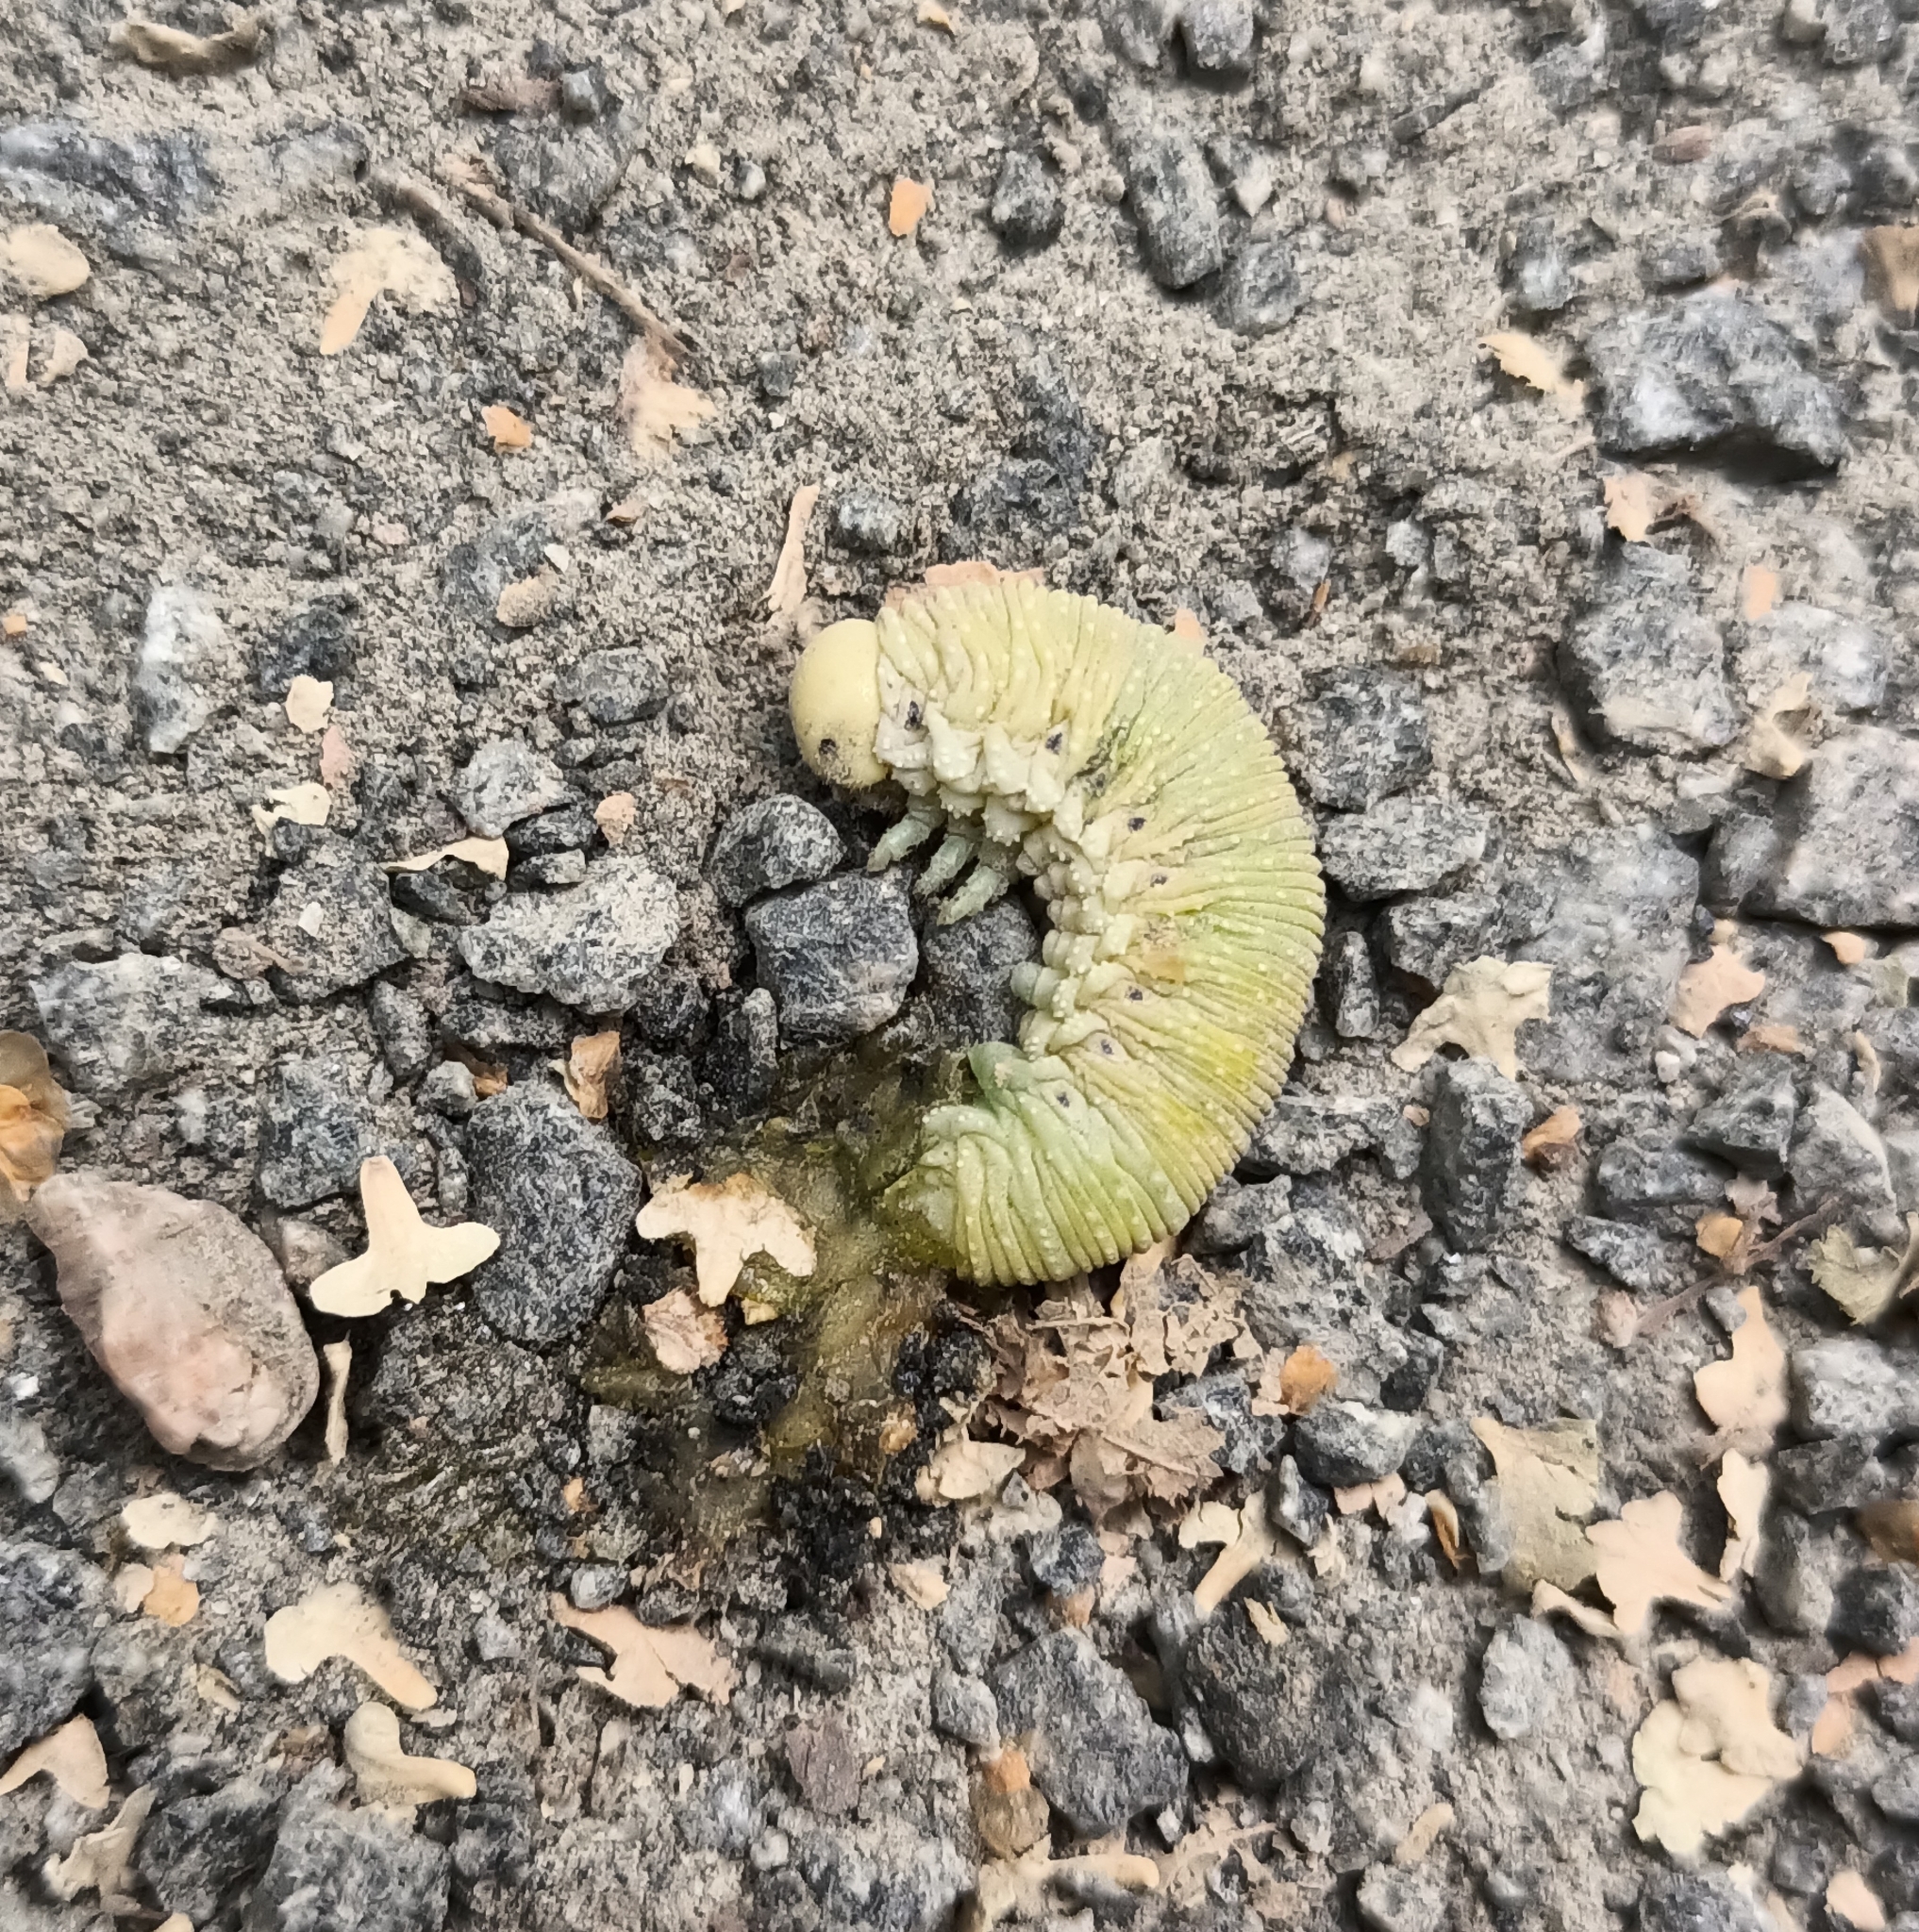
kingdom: Animalia
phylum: Arthropoda
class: Insecta
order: Hymenoptera
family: Cimbicidae
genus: Cimbex
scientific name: Cimbex femoratus
